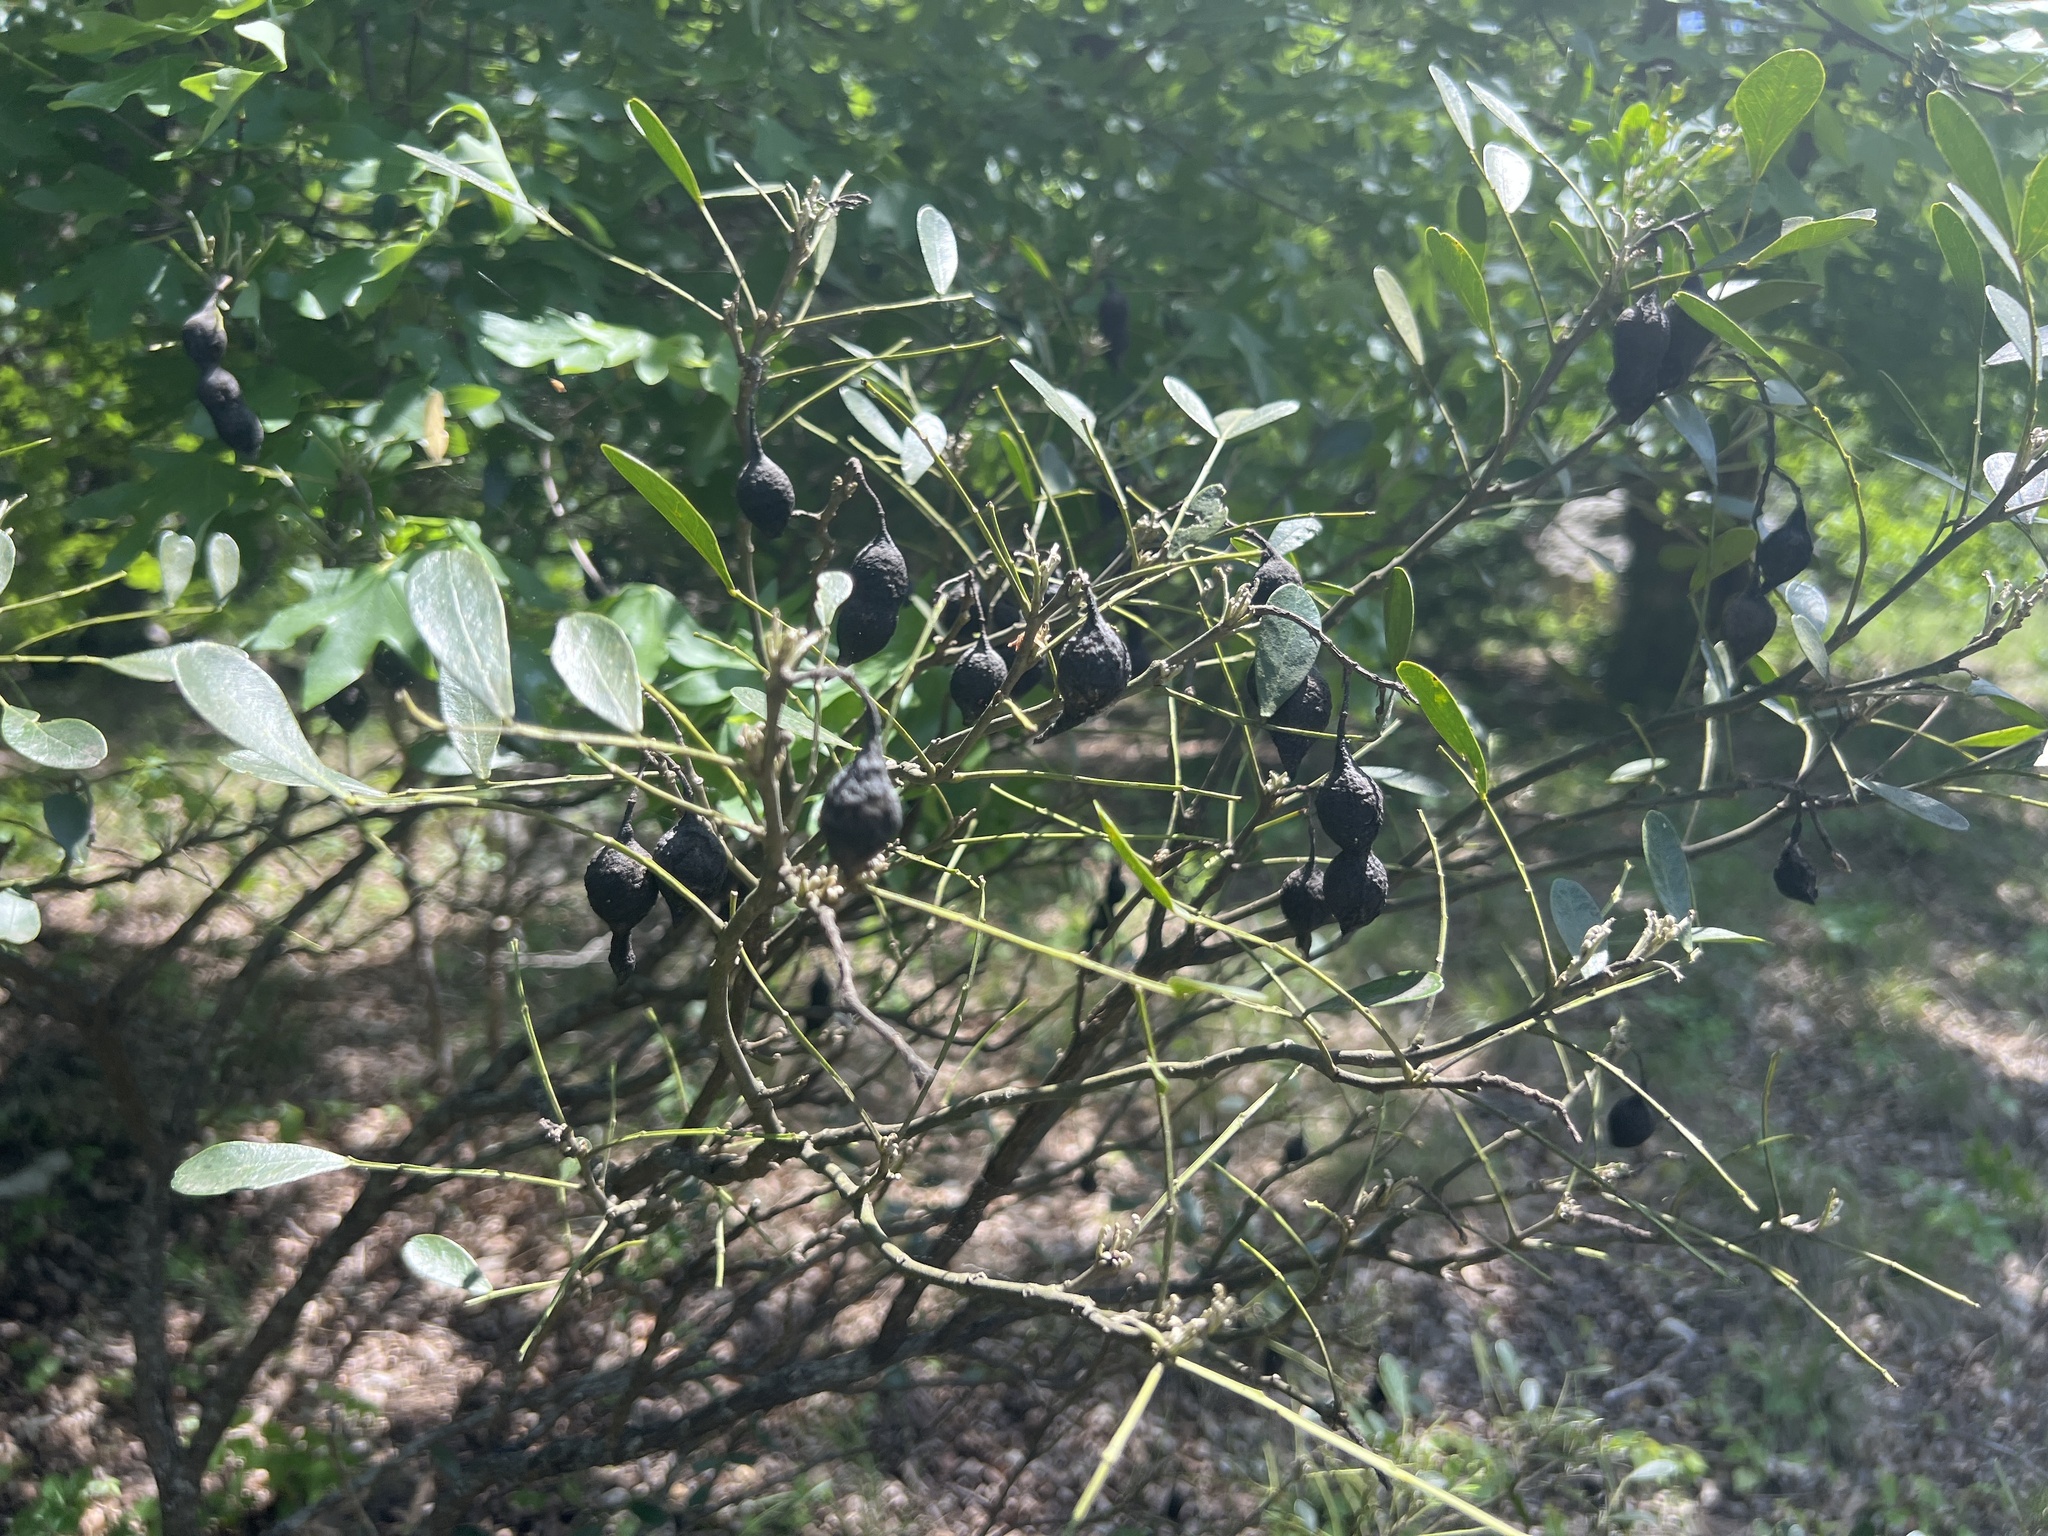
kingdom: Plantae
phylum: Tracheophyta
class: Magnoliopsida
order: Fabales
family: Fabaceae
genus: Dermatophyllum
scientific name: Dermatophyllum secundiflorum
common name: Texas-mountain-laurel
